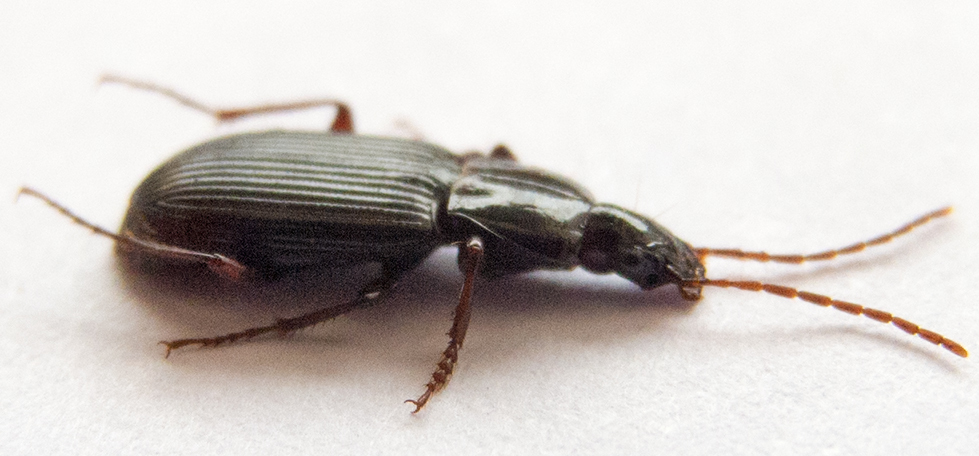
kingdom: Animalia
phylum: Arthropoda
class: Insecta
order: Coleoptera
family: Carabidae
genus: Pedius
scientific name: Pedius longicollis
